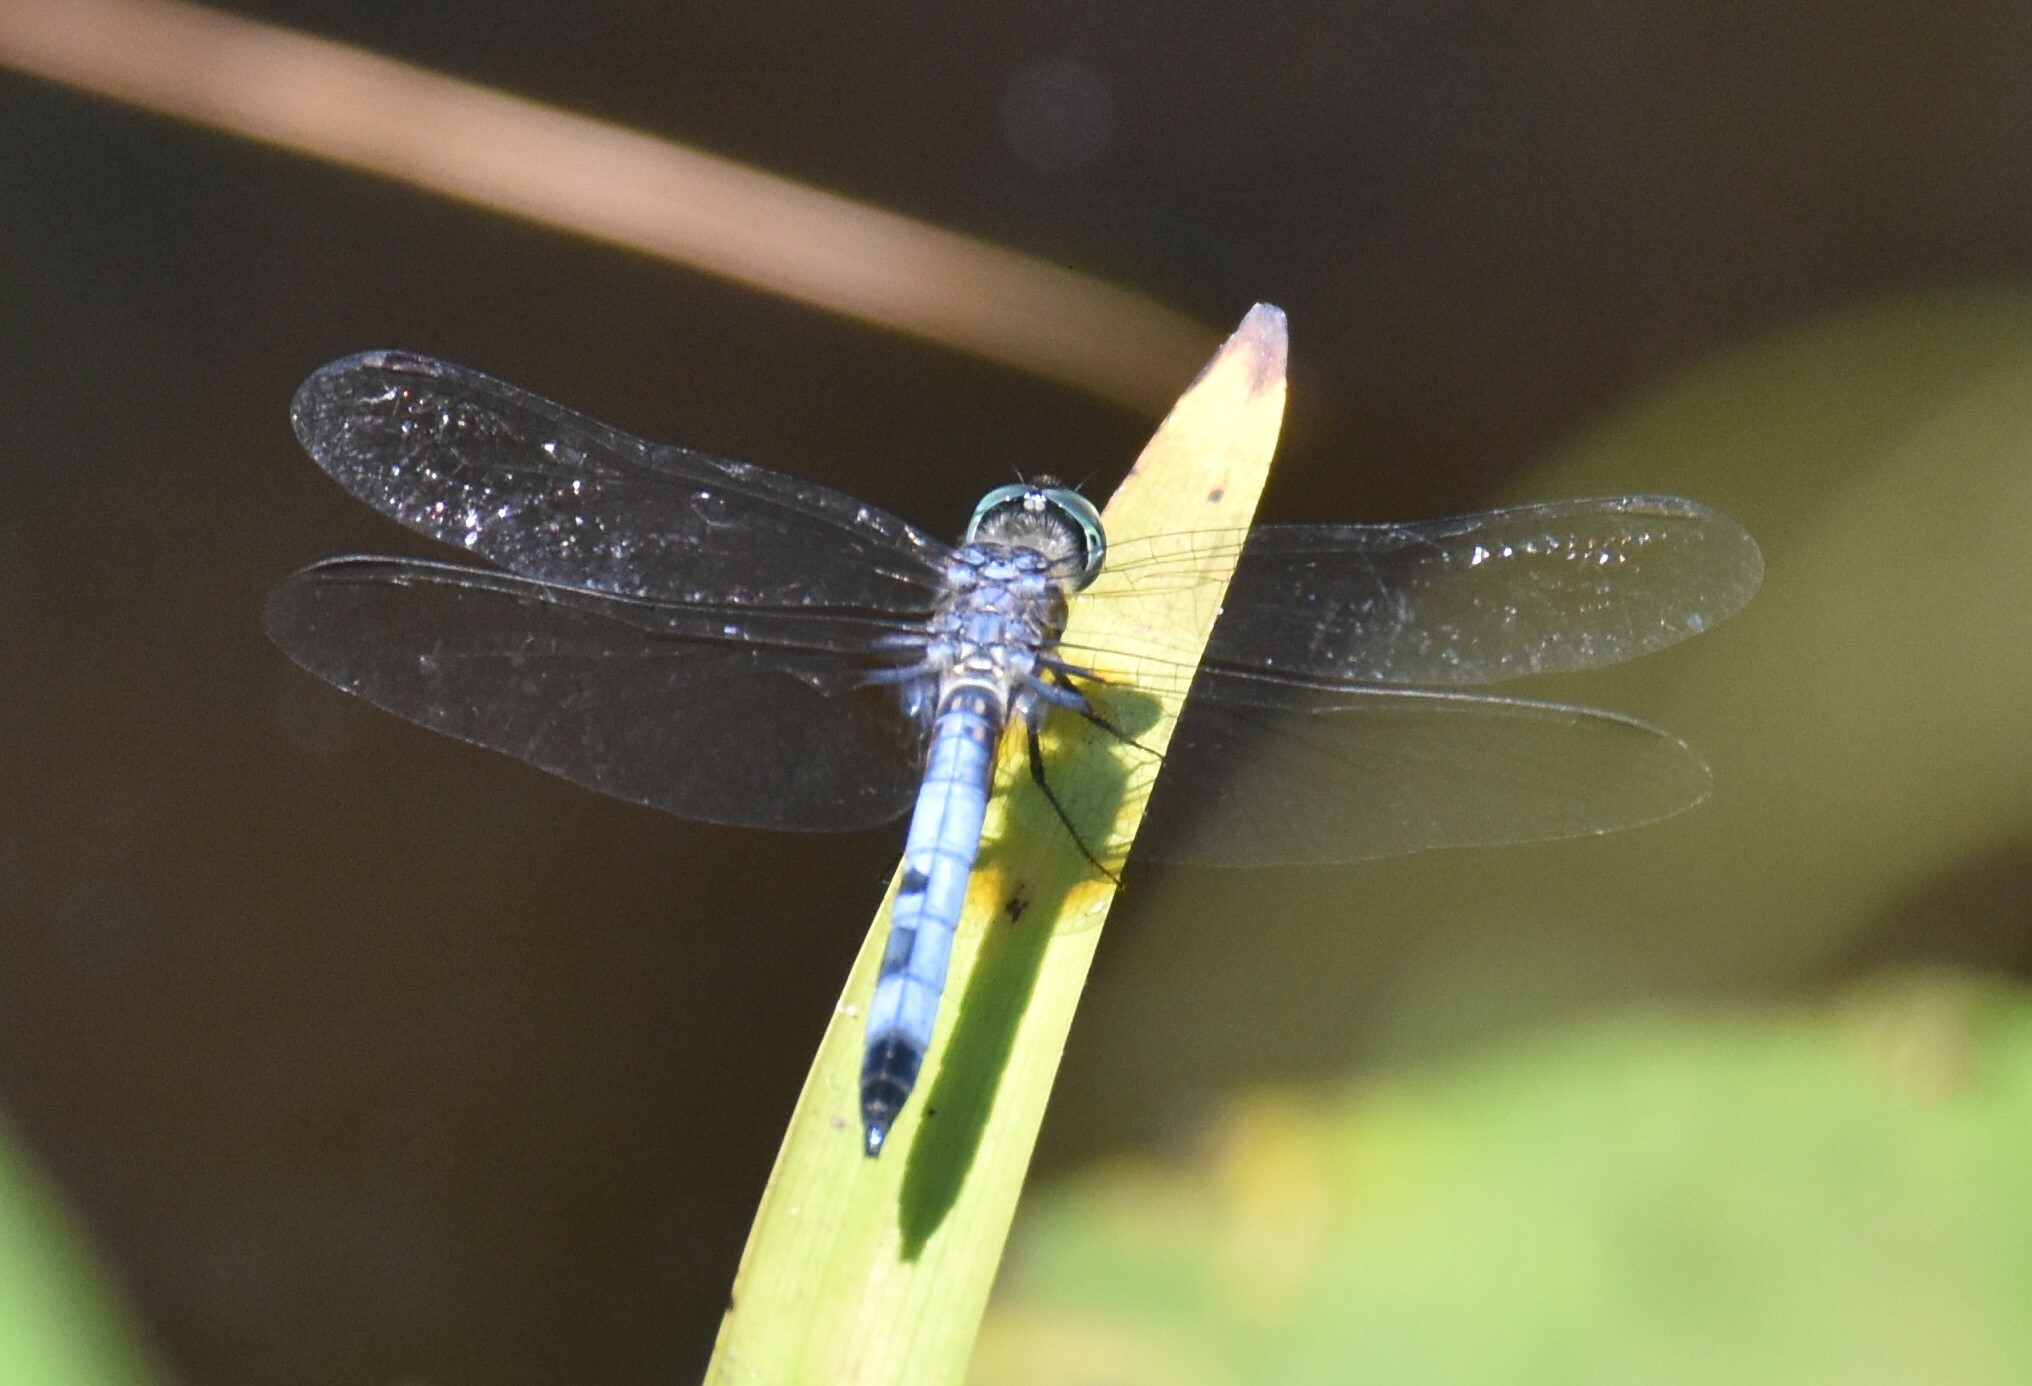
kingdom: Animalia
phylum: Arthropoda
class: Insecta
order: Odonata
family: Libellulidae
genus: Pachydiplax
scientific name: Pachydiplax longipennis
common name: Blue dasher
